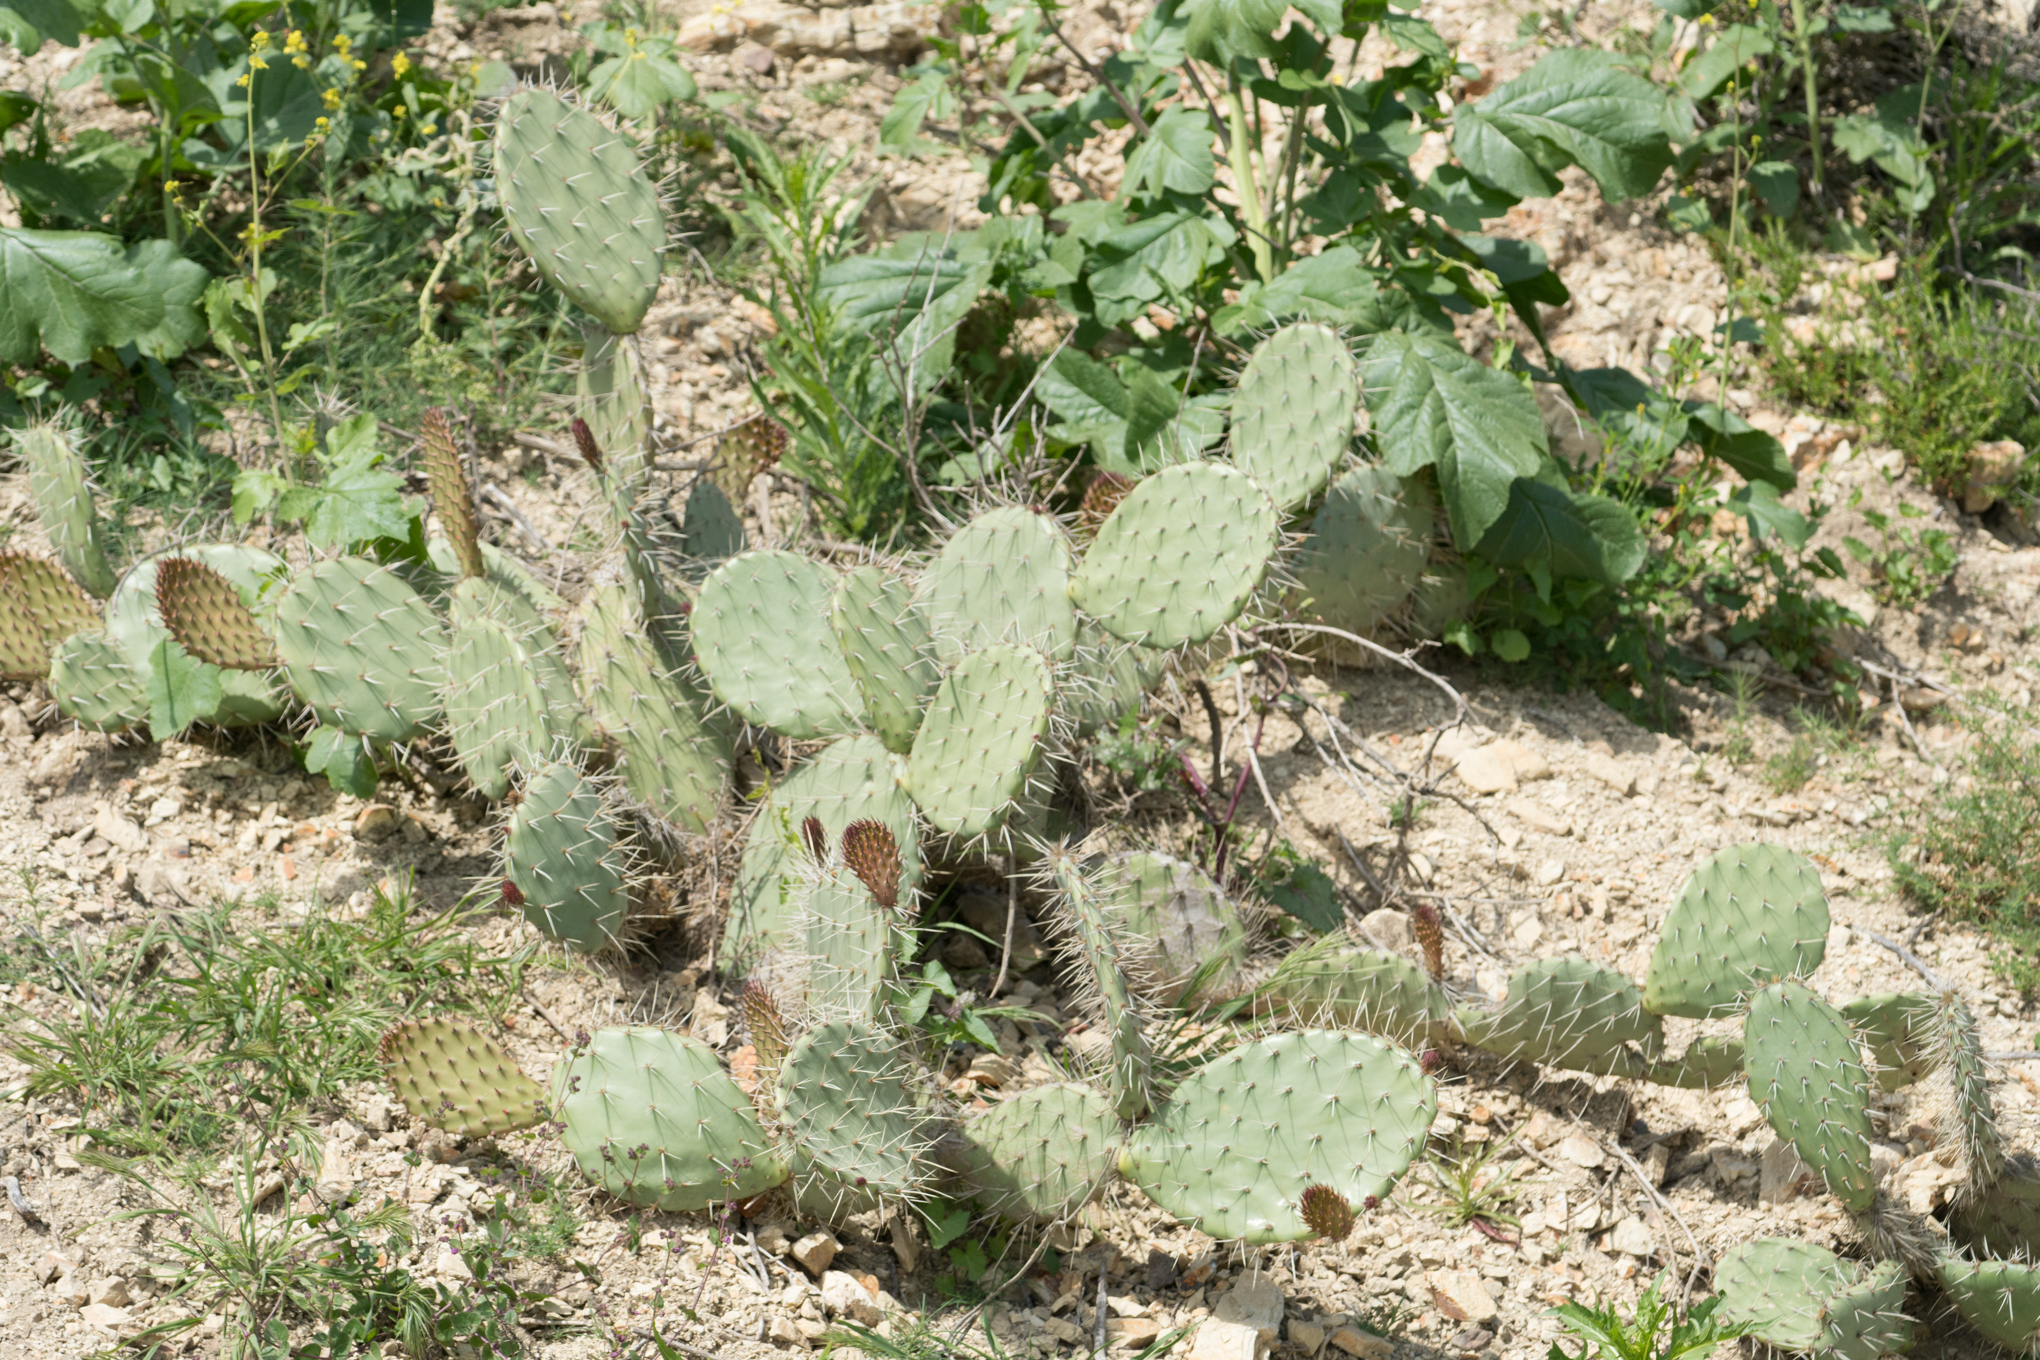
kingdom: Plantae
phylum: Tracheophyta
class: Magnoliopsida
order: Caryophyllales
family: Cactaceae
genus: Opuntia
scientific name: Opuntia littoralis
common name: Coastal prickly-pear
